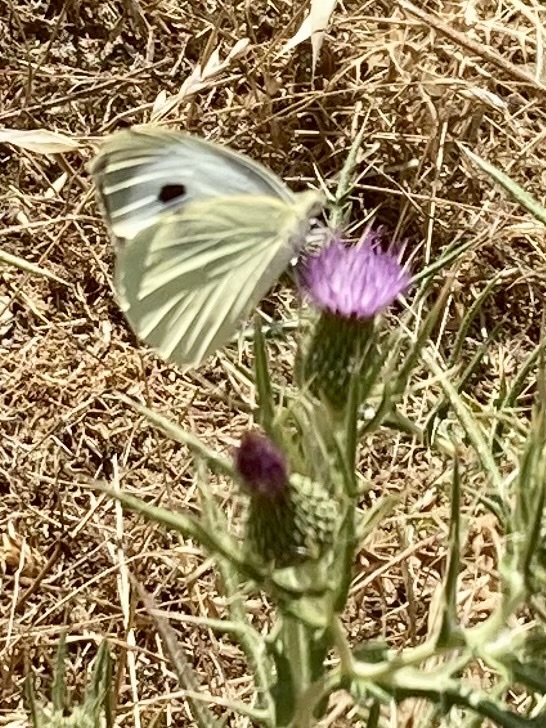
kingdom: Animalia
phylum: Arthropoda
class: Insecta
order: Lepidoptera
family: Pieridae
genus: Pieris
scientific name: Pieris brassicae
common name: Large white
